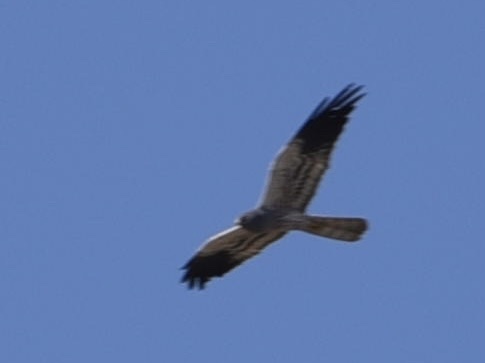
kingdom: Animalia
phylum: Chordata
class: Aves
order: Accipitriformes
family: Accipitridae
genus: Circus
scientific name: Circus pygargus
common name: Montagu's harrier
